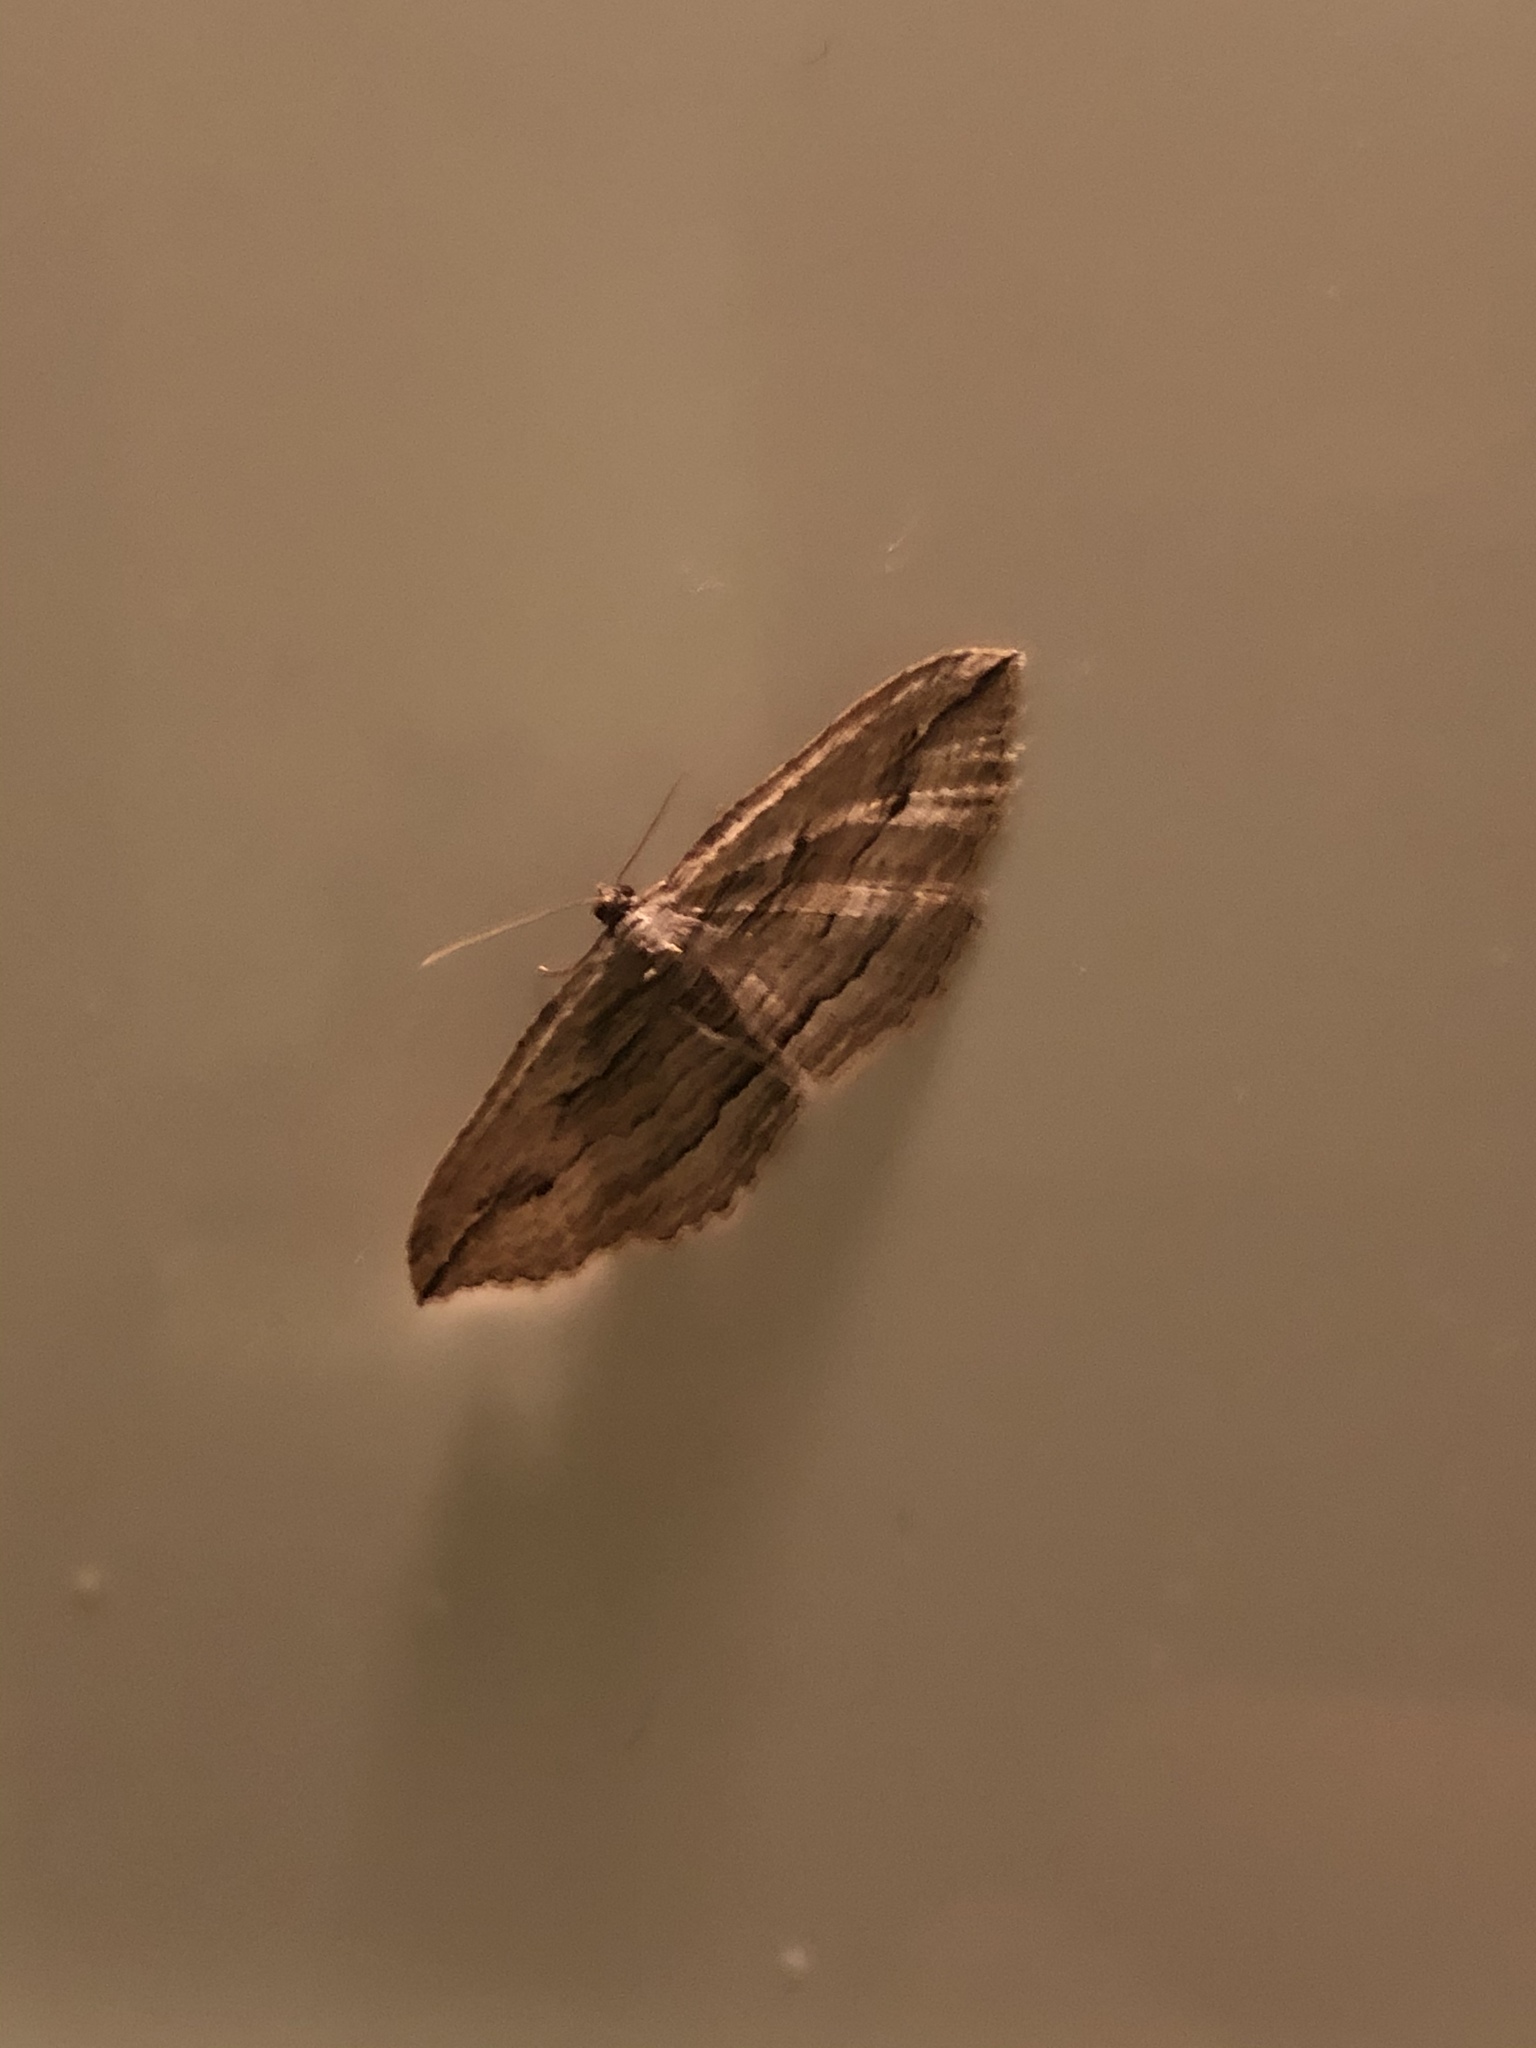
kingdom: Animalia
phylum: Arthropoda
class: Insecta
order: Lepidoptera
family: Geometridae
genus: Austrocidaria
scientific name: Austrocidaria gobiata
